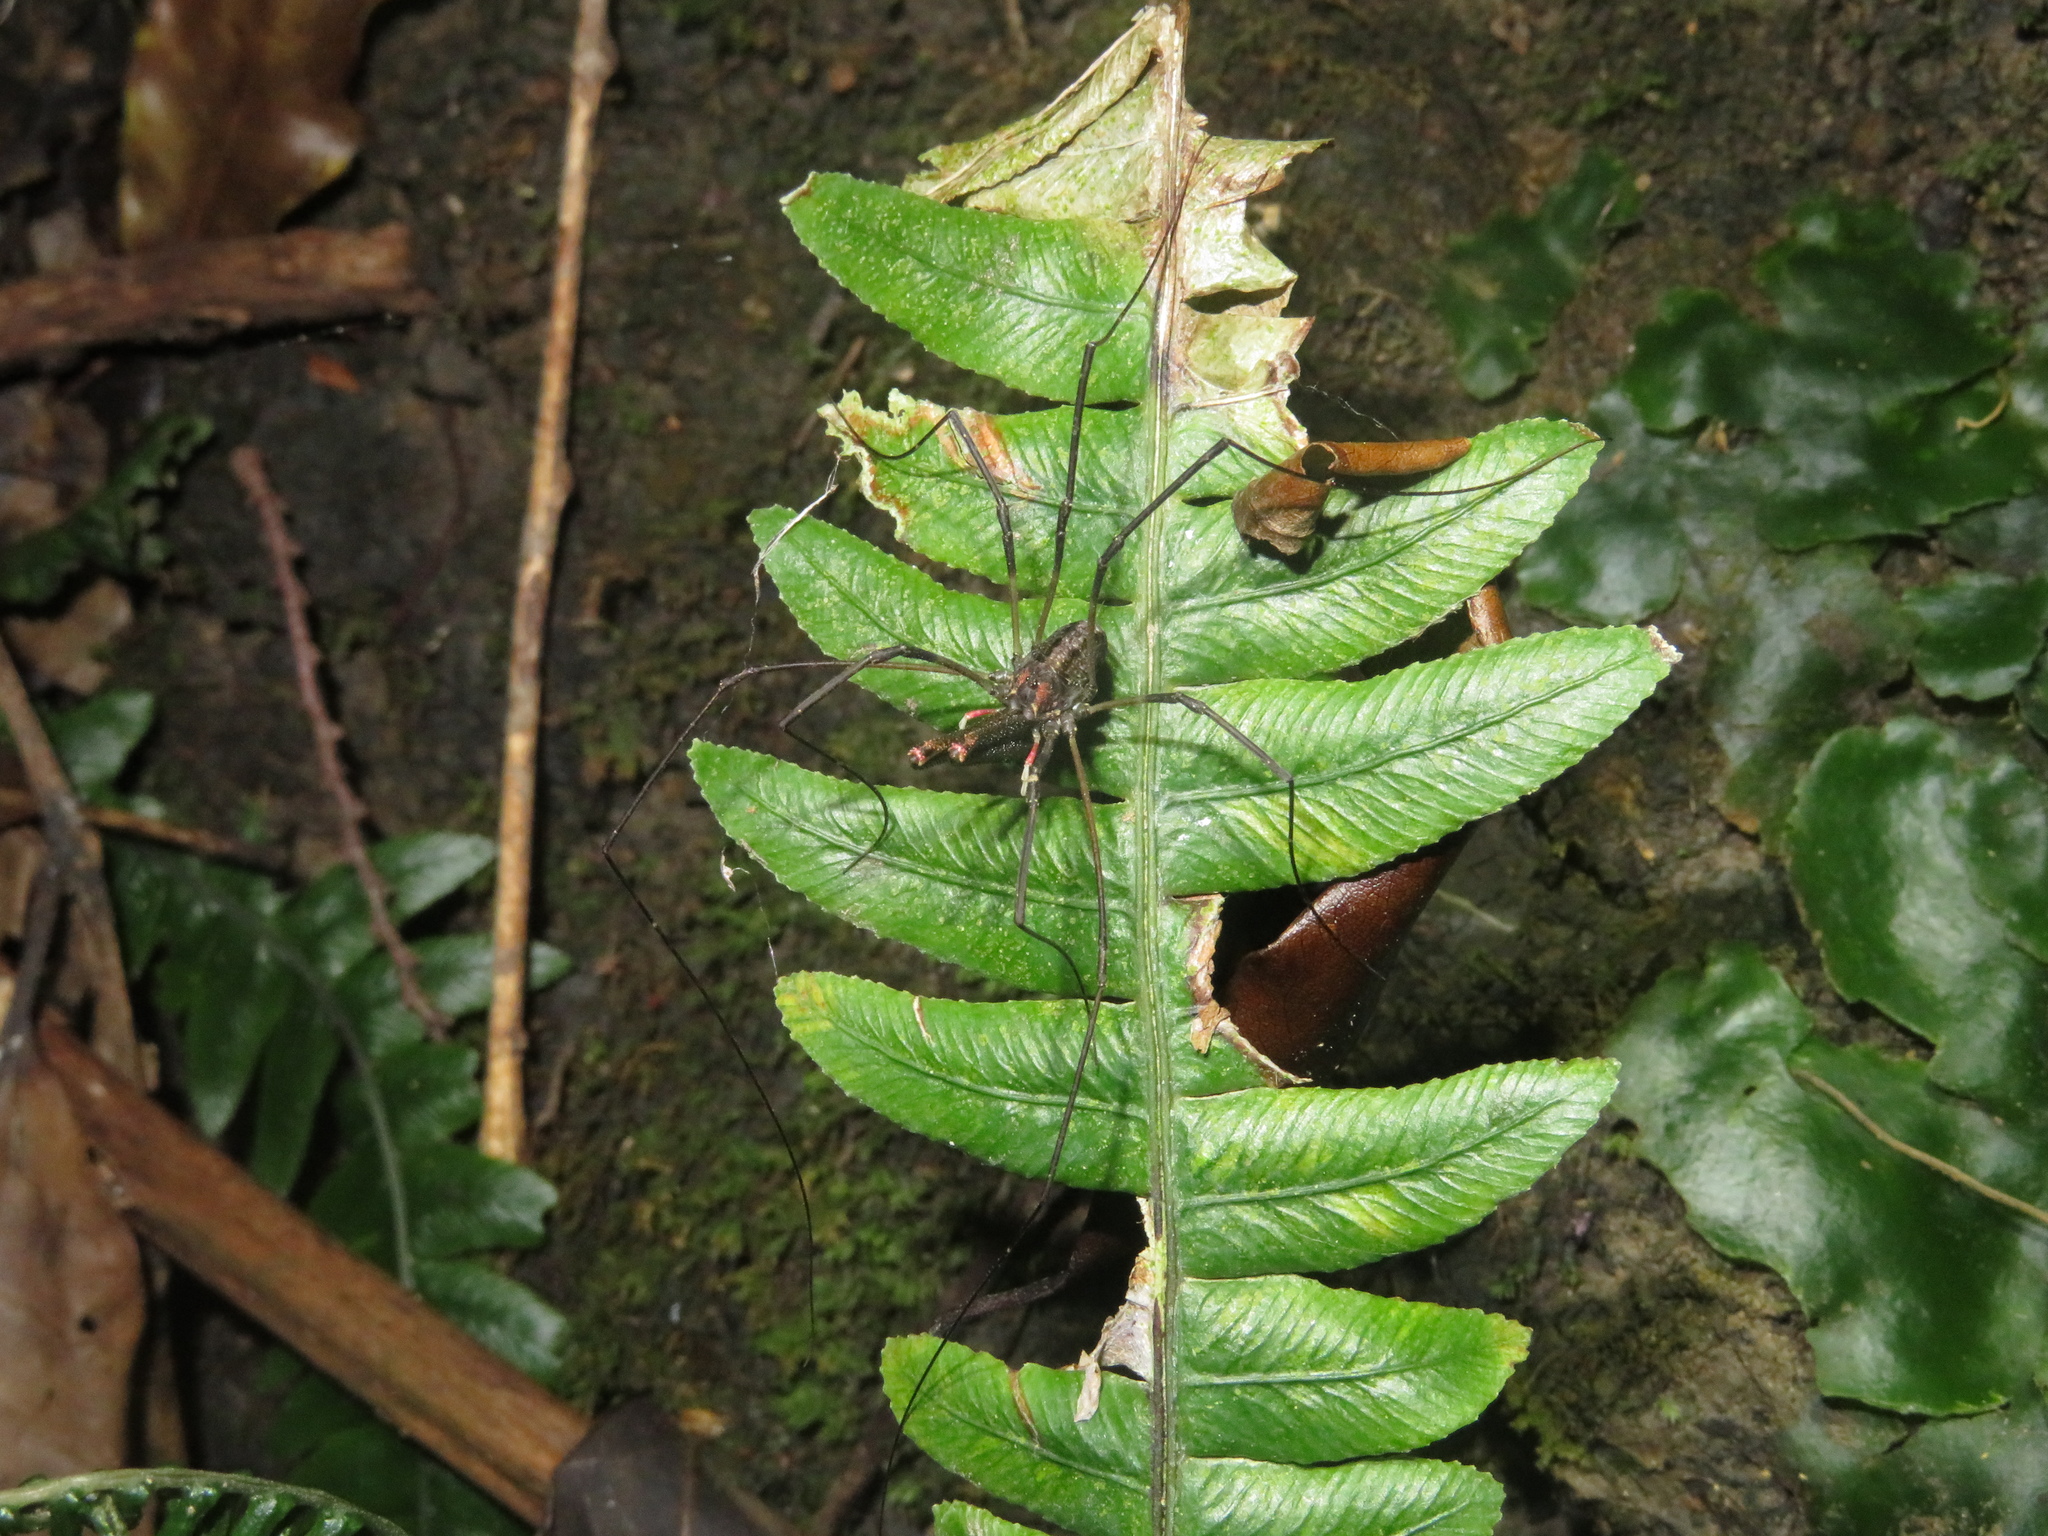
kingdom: Animalia
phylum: Arthropoda
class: Arachnida
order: Opiliones
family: Neopilionidae
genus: Forsteropsalis
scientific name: Forsteropsalis inconstans
